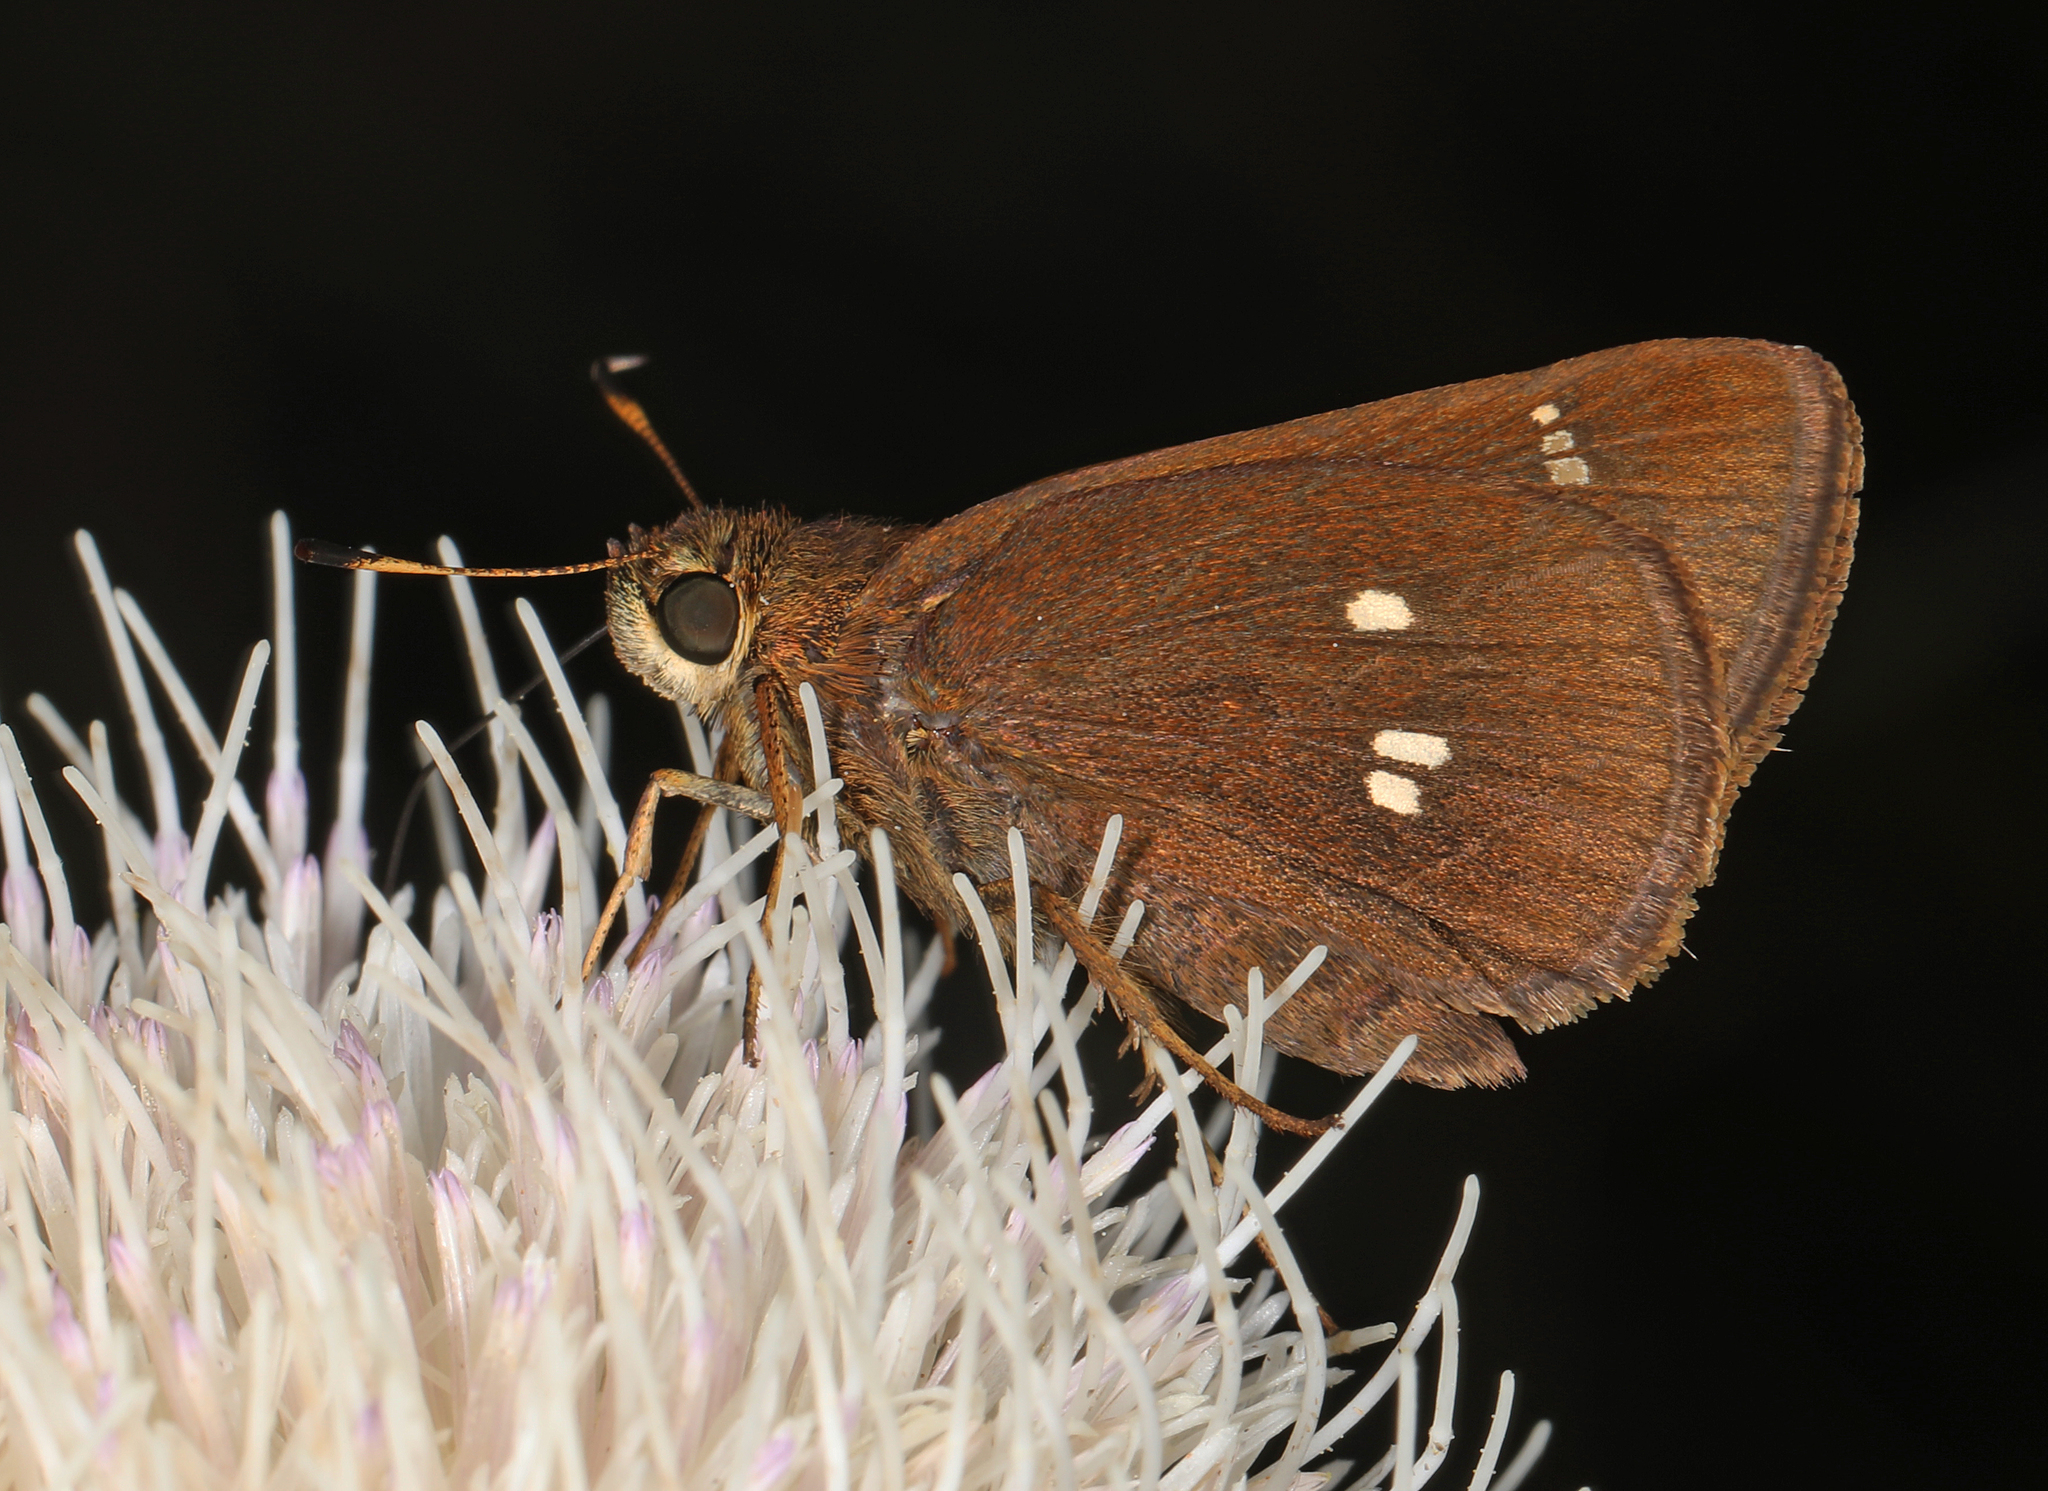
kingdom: Animalia
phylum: Arthropoda
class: Insecta
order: Lepidoptera
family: Hesperiidae
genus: Oligoria
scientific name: Oligoria maculata
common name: Twin-spot skipper
